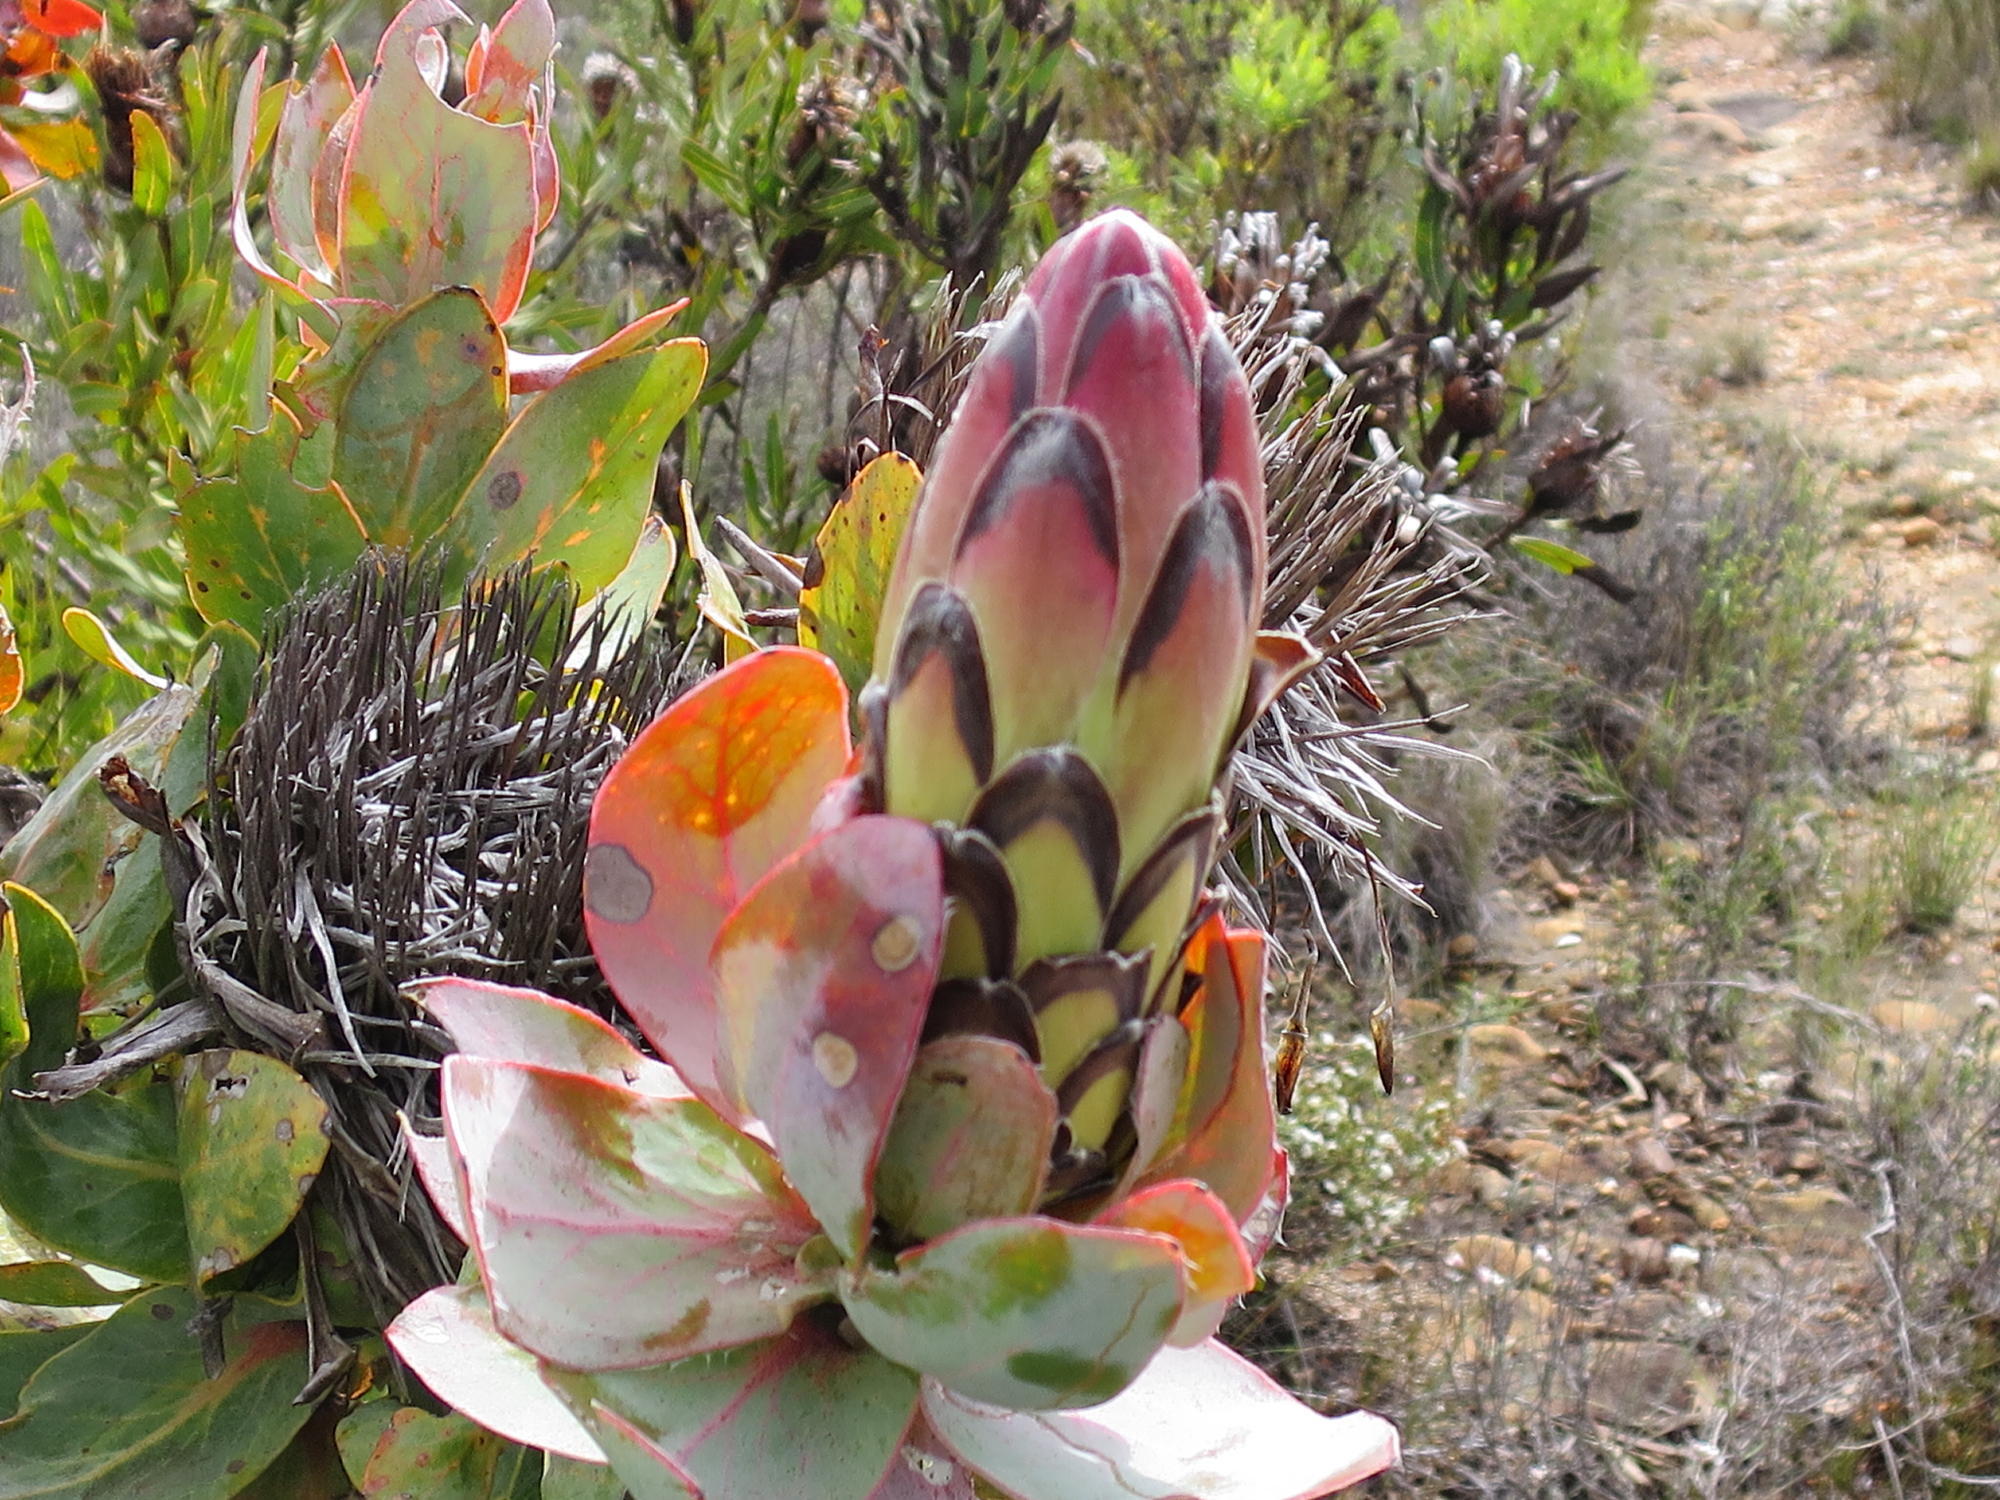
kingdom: Plantae
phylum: Tracheophyta
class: Magnoliopsida
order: Proteales
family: Proteaceae
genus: Protea
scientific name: Protea eximia
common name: Broad-leaved sugarbush
